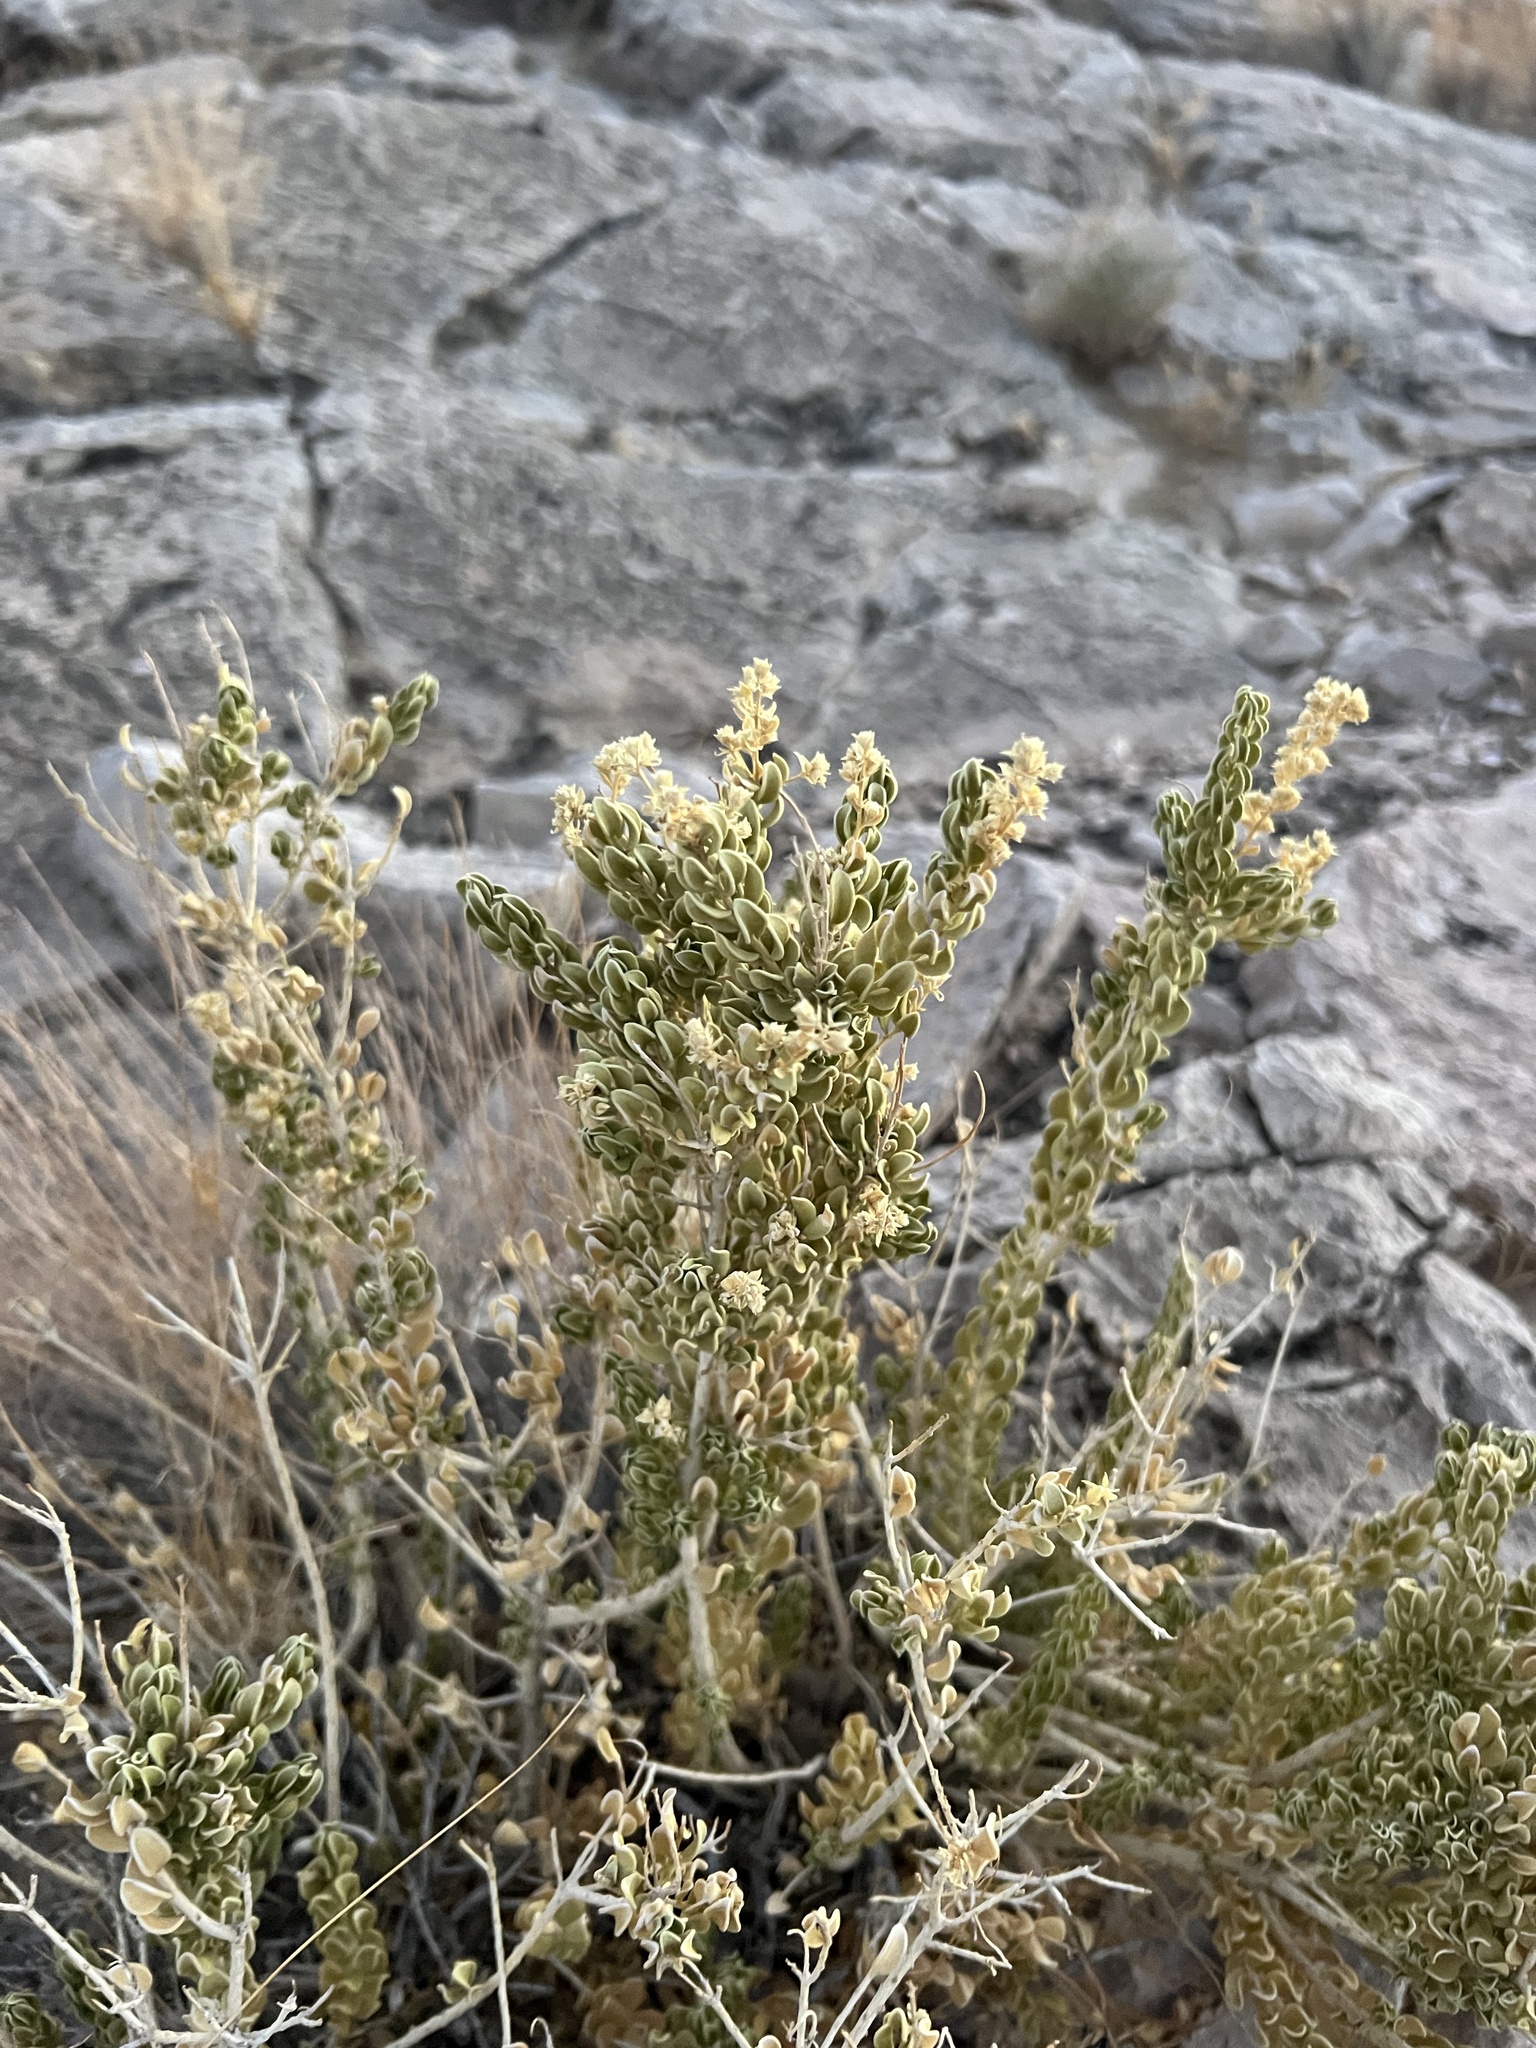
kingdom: Plantae
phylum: Tracheophyta
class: Magnoliopsida
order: Celastrales
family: Celastraceae
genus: Mortonia
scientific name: Mortonia utahensis
